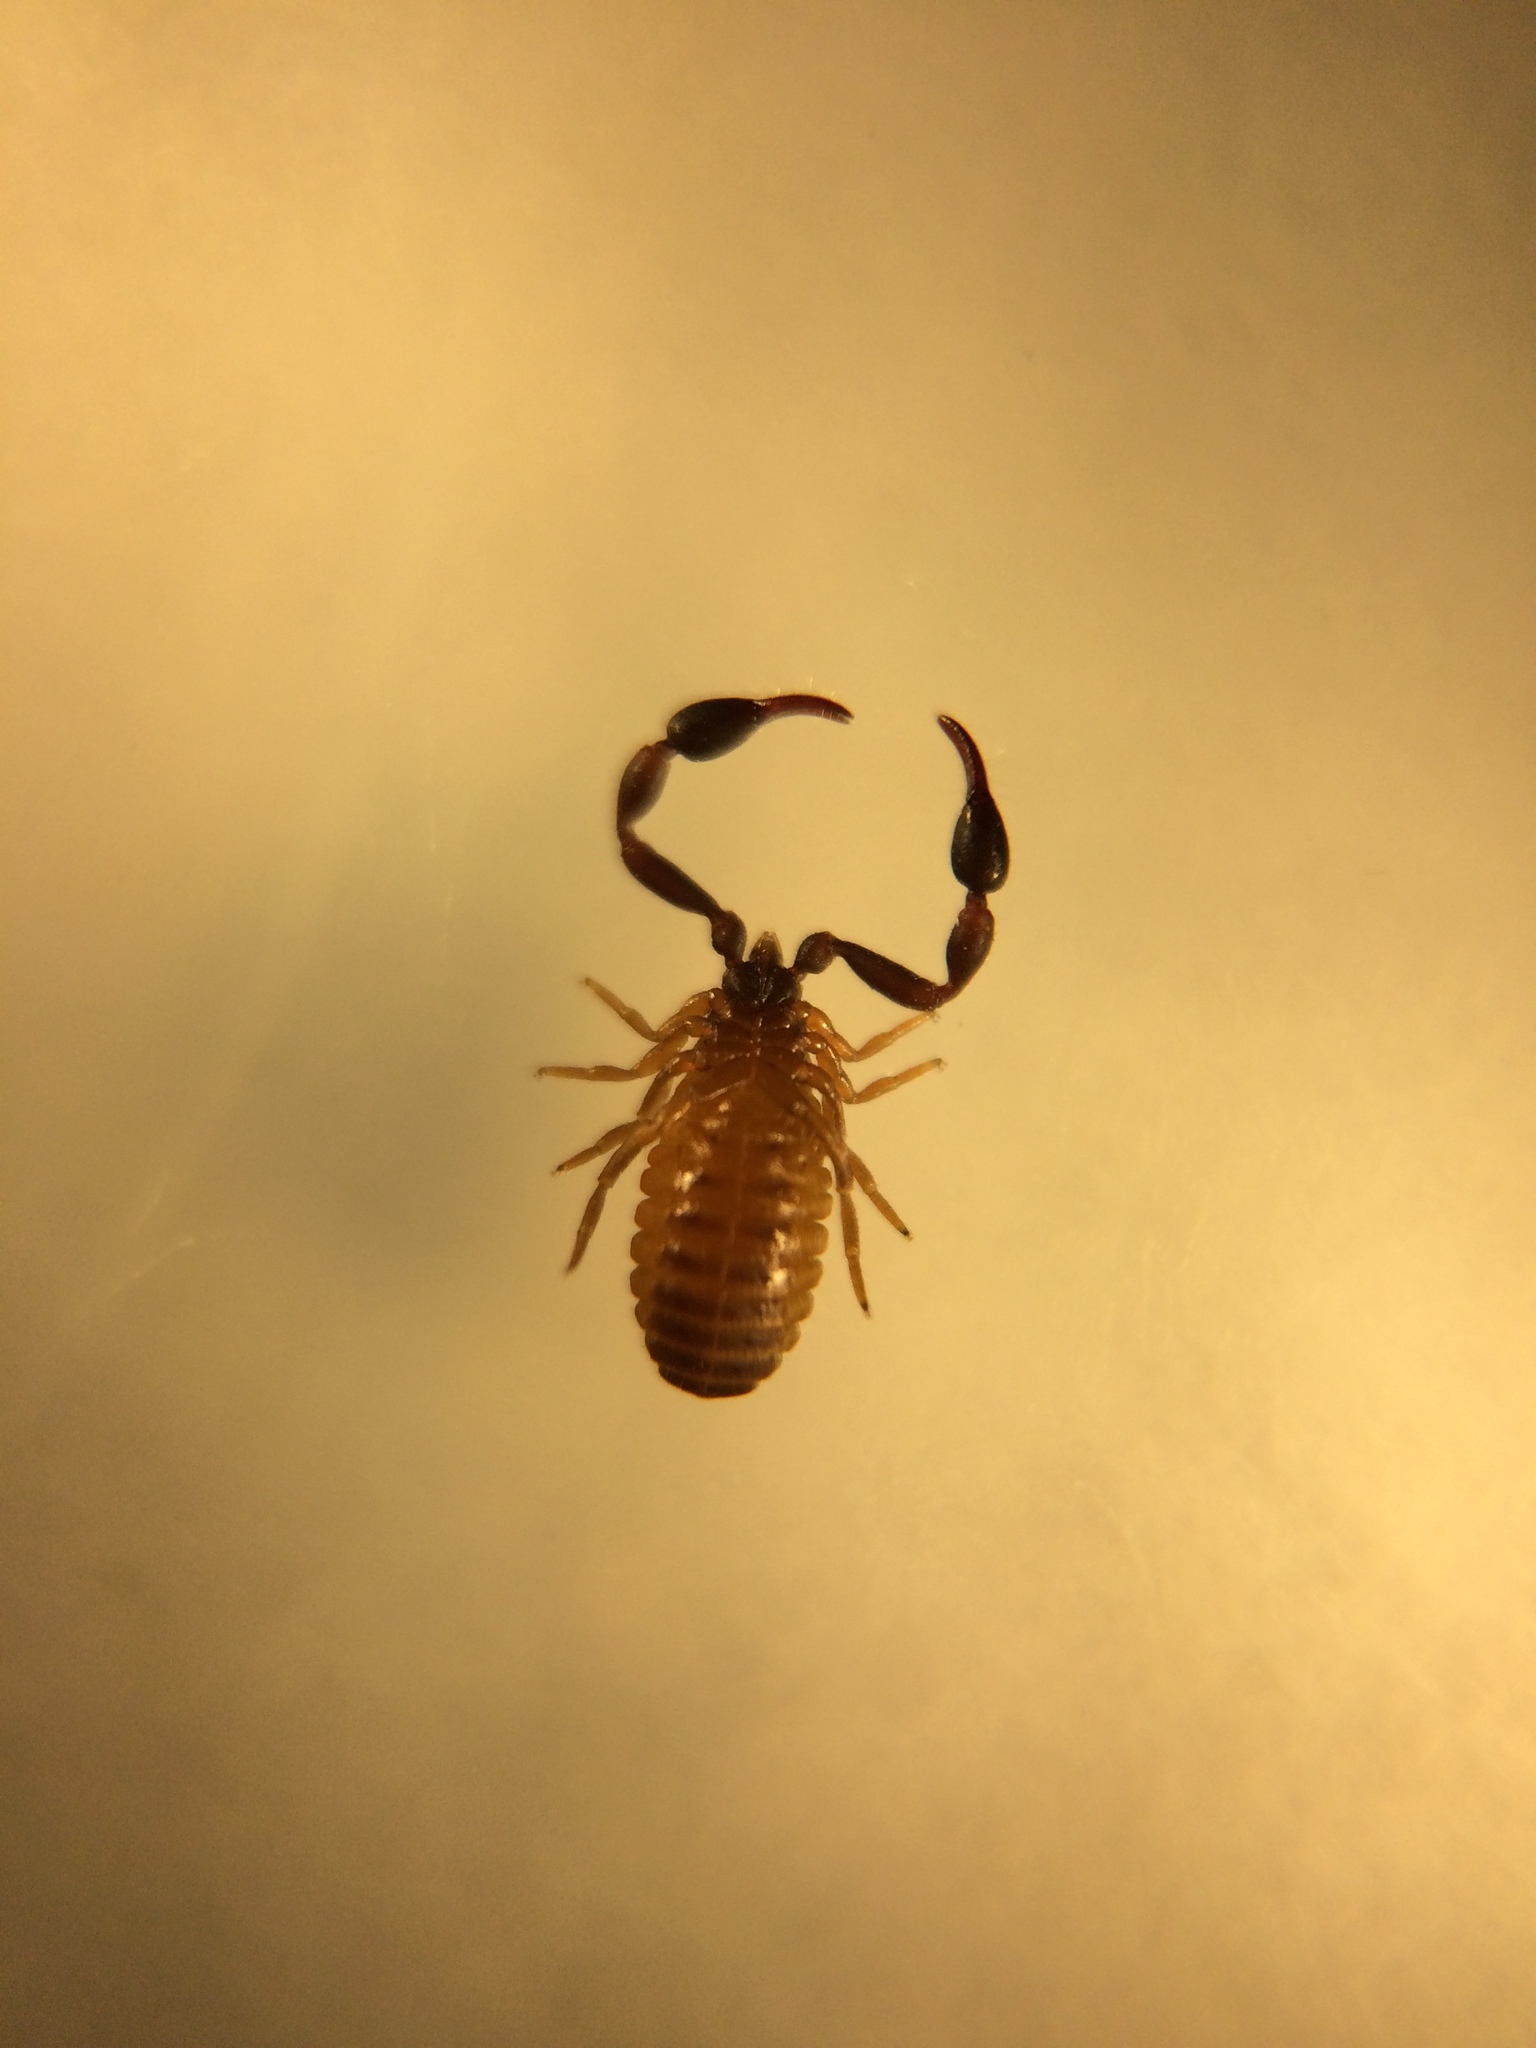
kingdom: Animalia
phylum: Arthropoda
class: Arachnida
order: Pseudoscorpiones
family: Cheliferidae
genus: Dactylochelifer
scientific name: Dactylochelifer latreillii
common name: Marram grass chelifer
